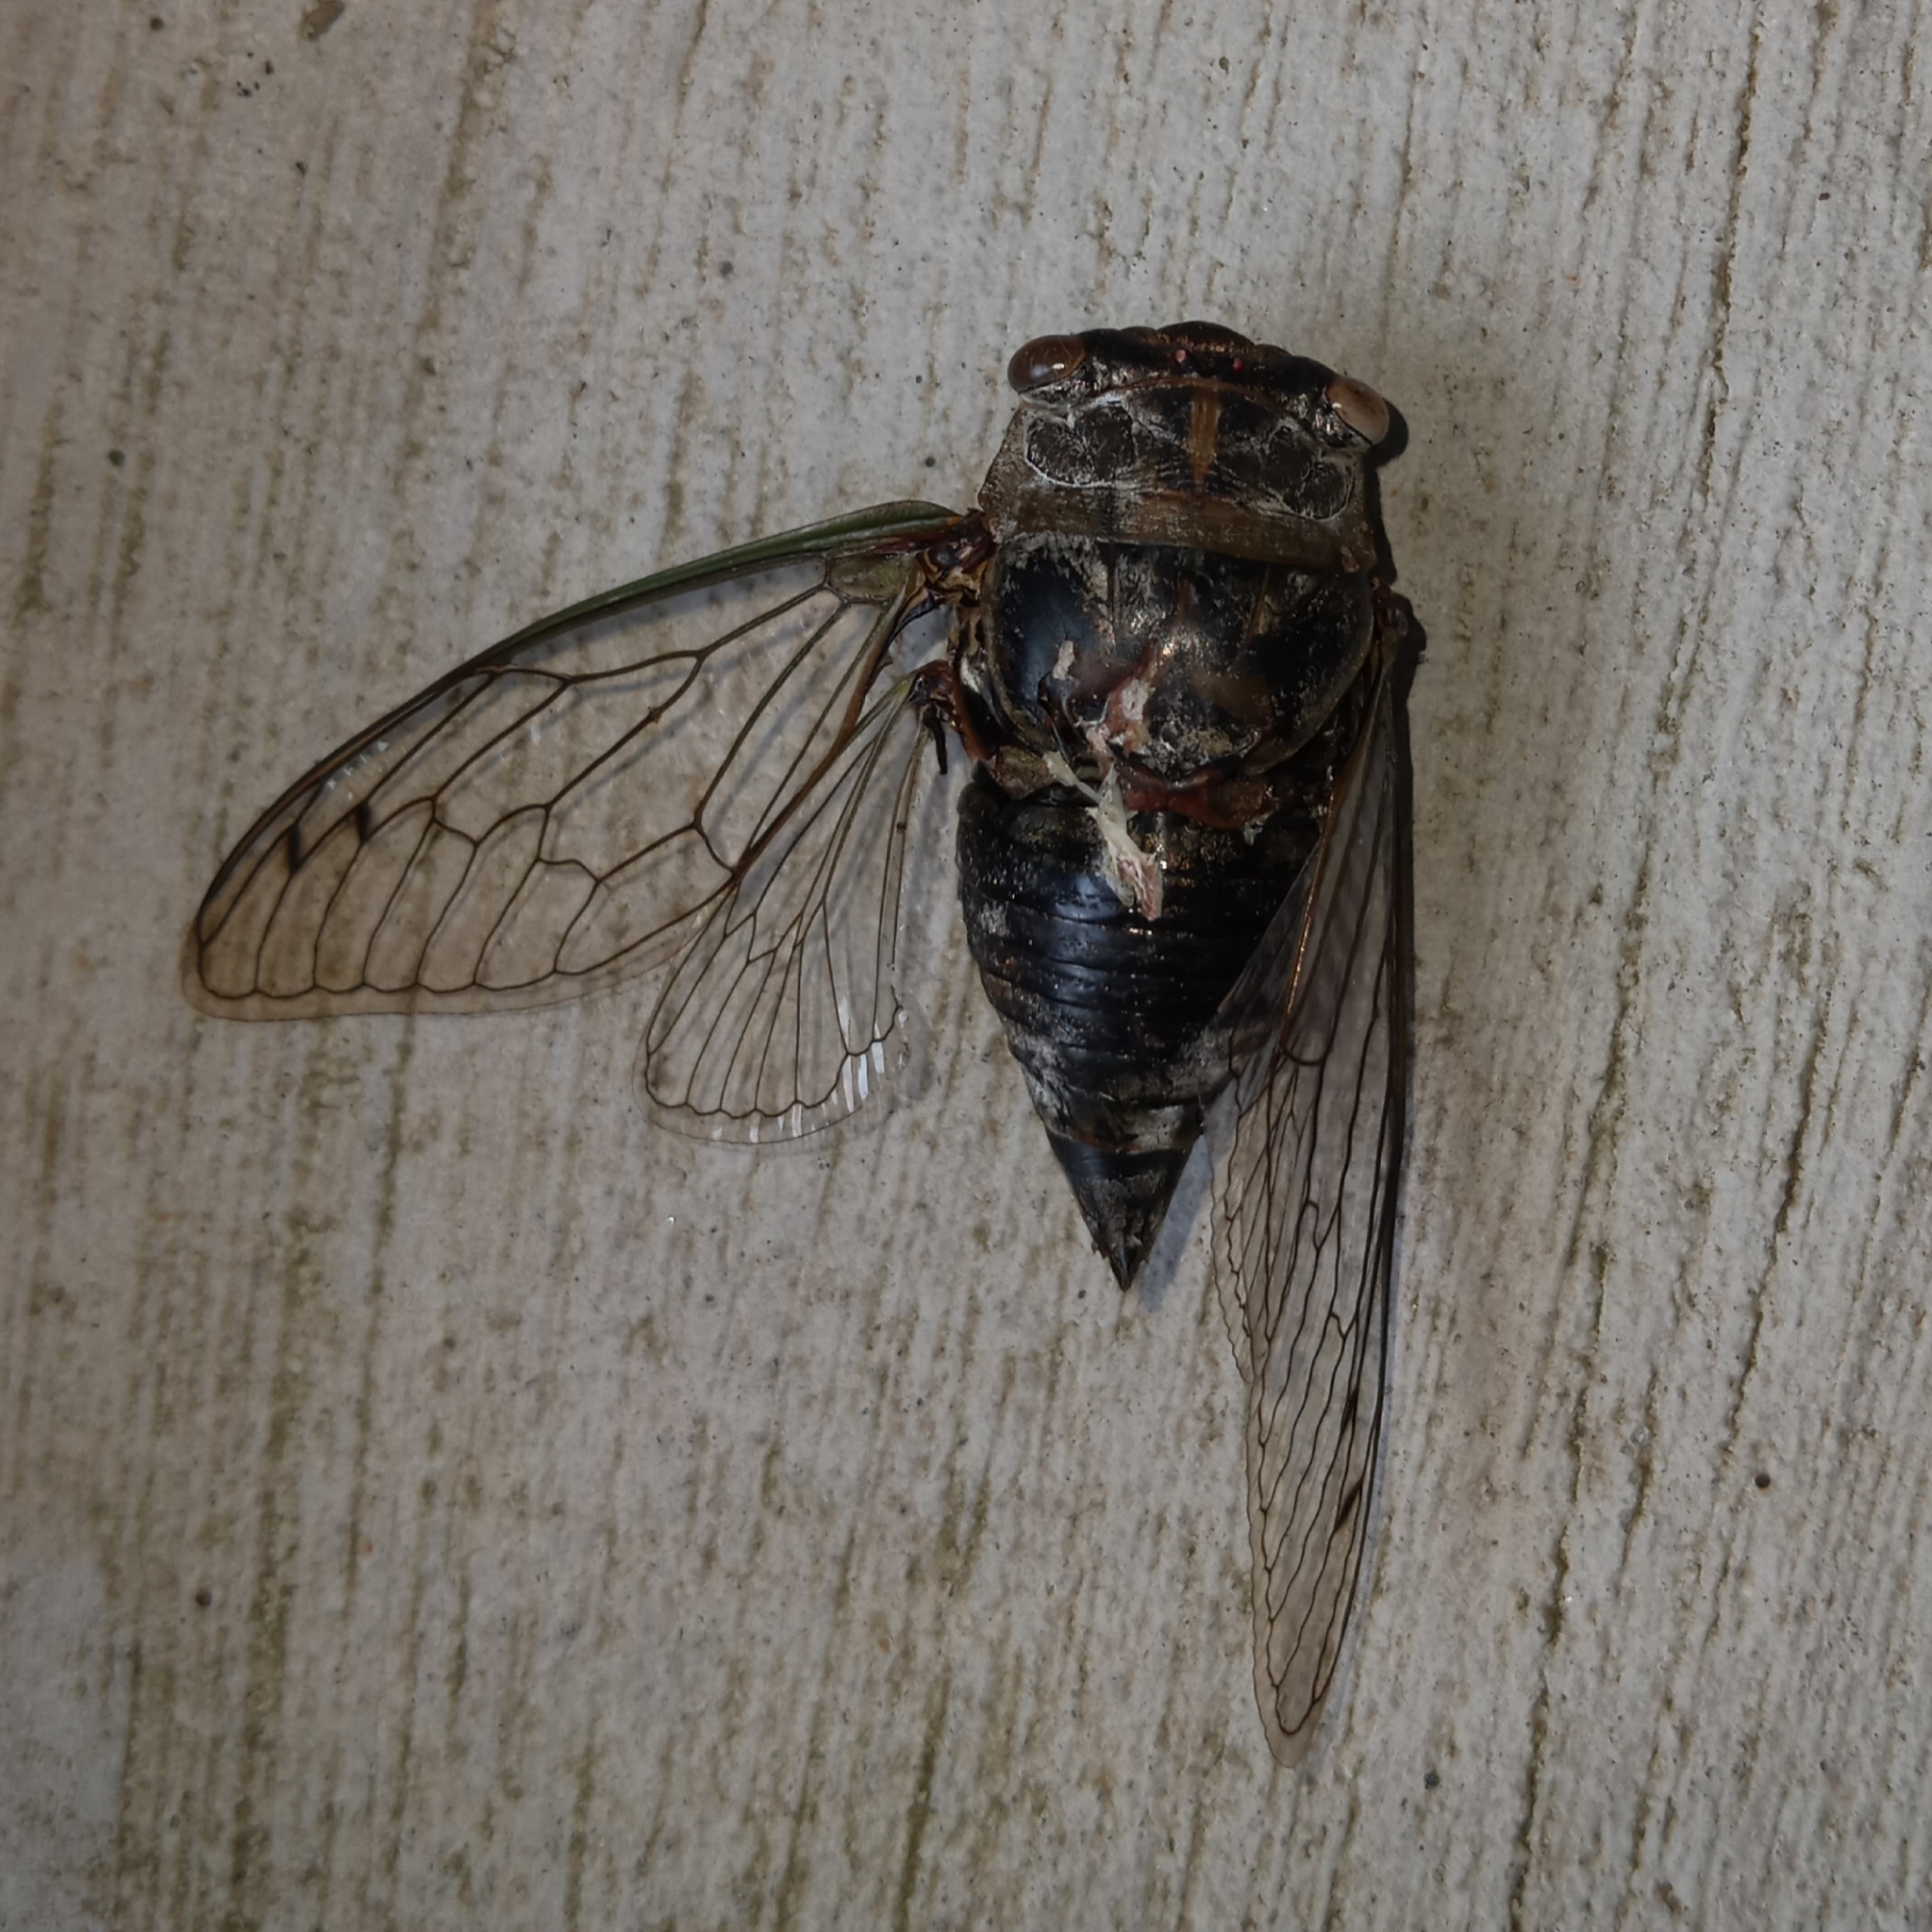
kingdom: Animalia
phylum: Arthropoda
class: Insecta
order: Hemiptera
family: Cicadidae
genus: Diceroprocta
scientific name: Diceroprocta grossa
